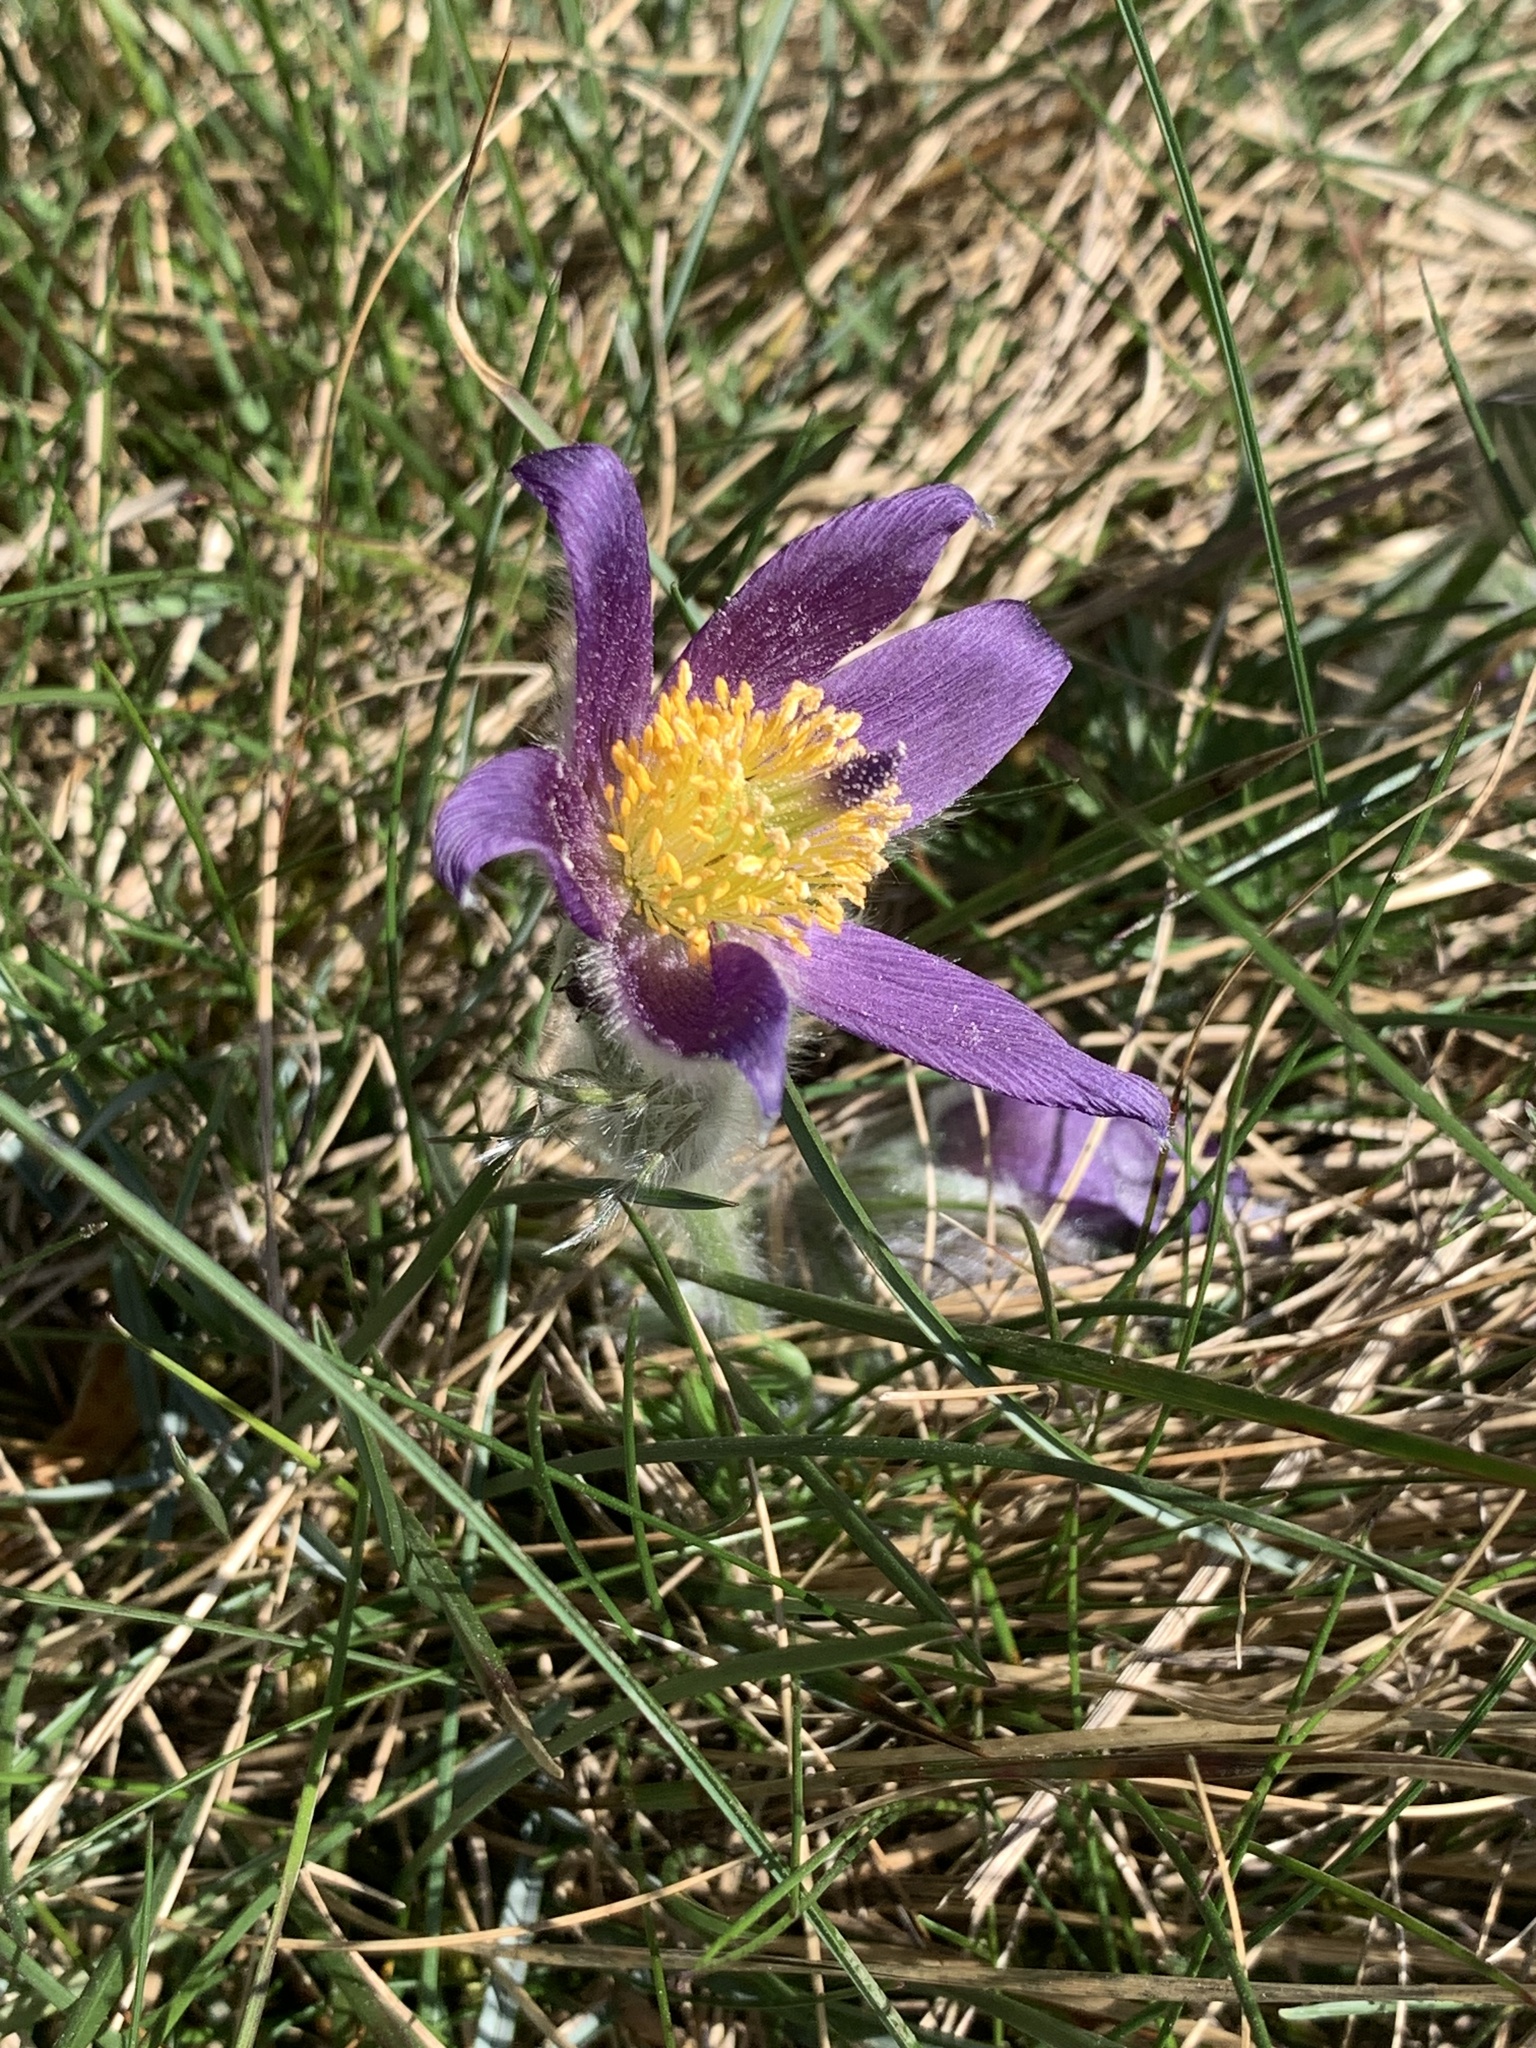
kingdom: Plantae
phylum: Tracheophyta
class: Magnoliopsida
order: Ranunculales
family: Ranunculaceae
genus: Pulsatilla
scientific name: Pulsatilla vulgaris
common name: Pasqueflower
